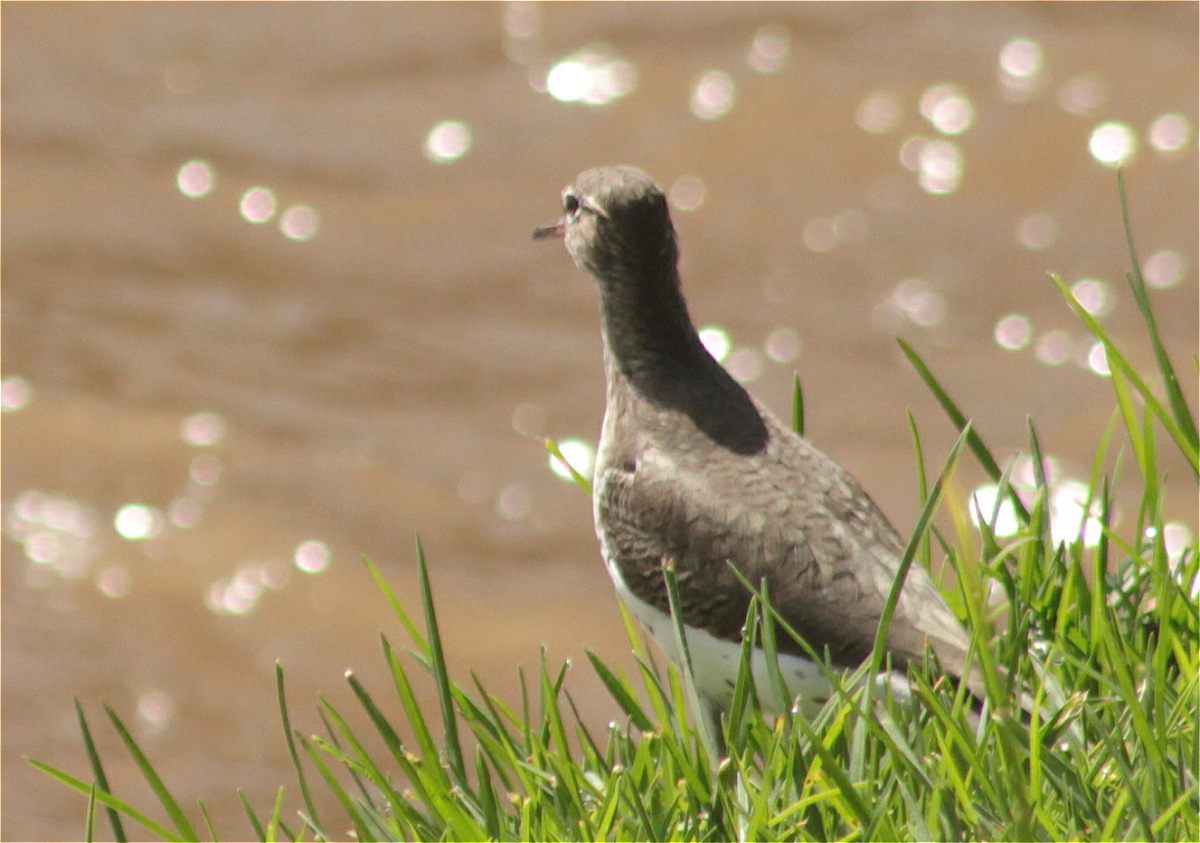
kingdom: Animalia
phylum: Chordata
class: Aves
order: Charadriiformes
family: Scolopacidae
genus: Actitis
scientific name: Actitis macularius
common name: Spotted sandpiper
